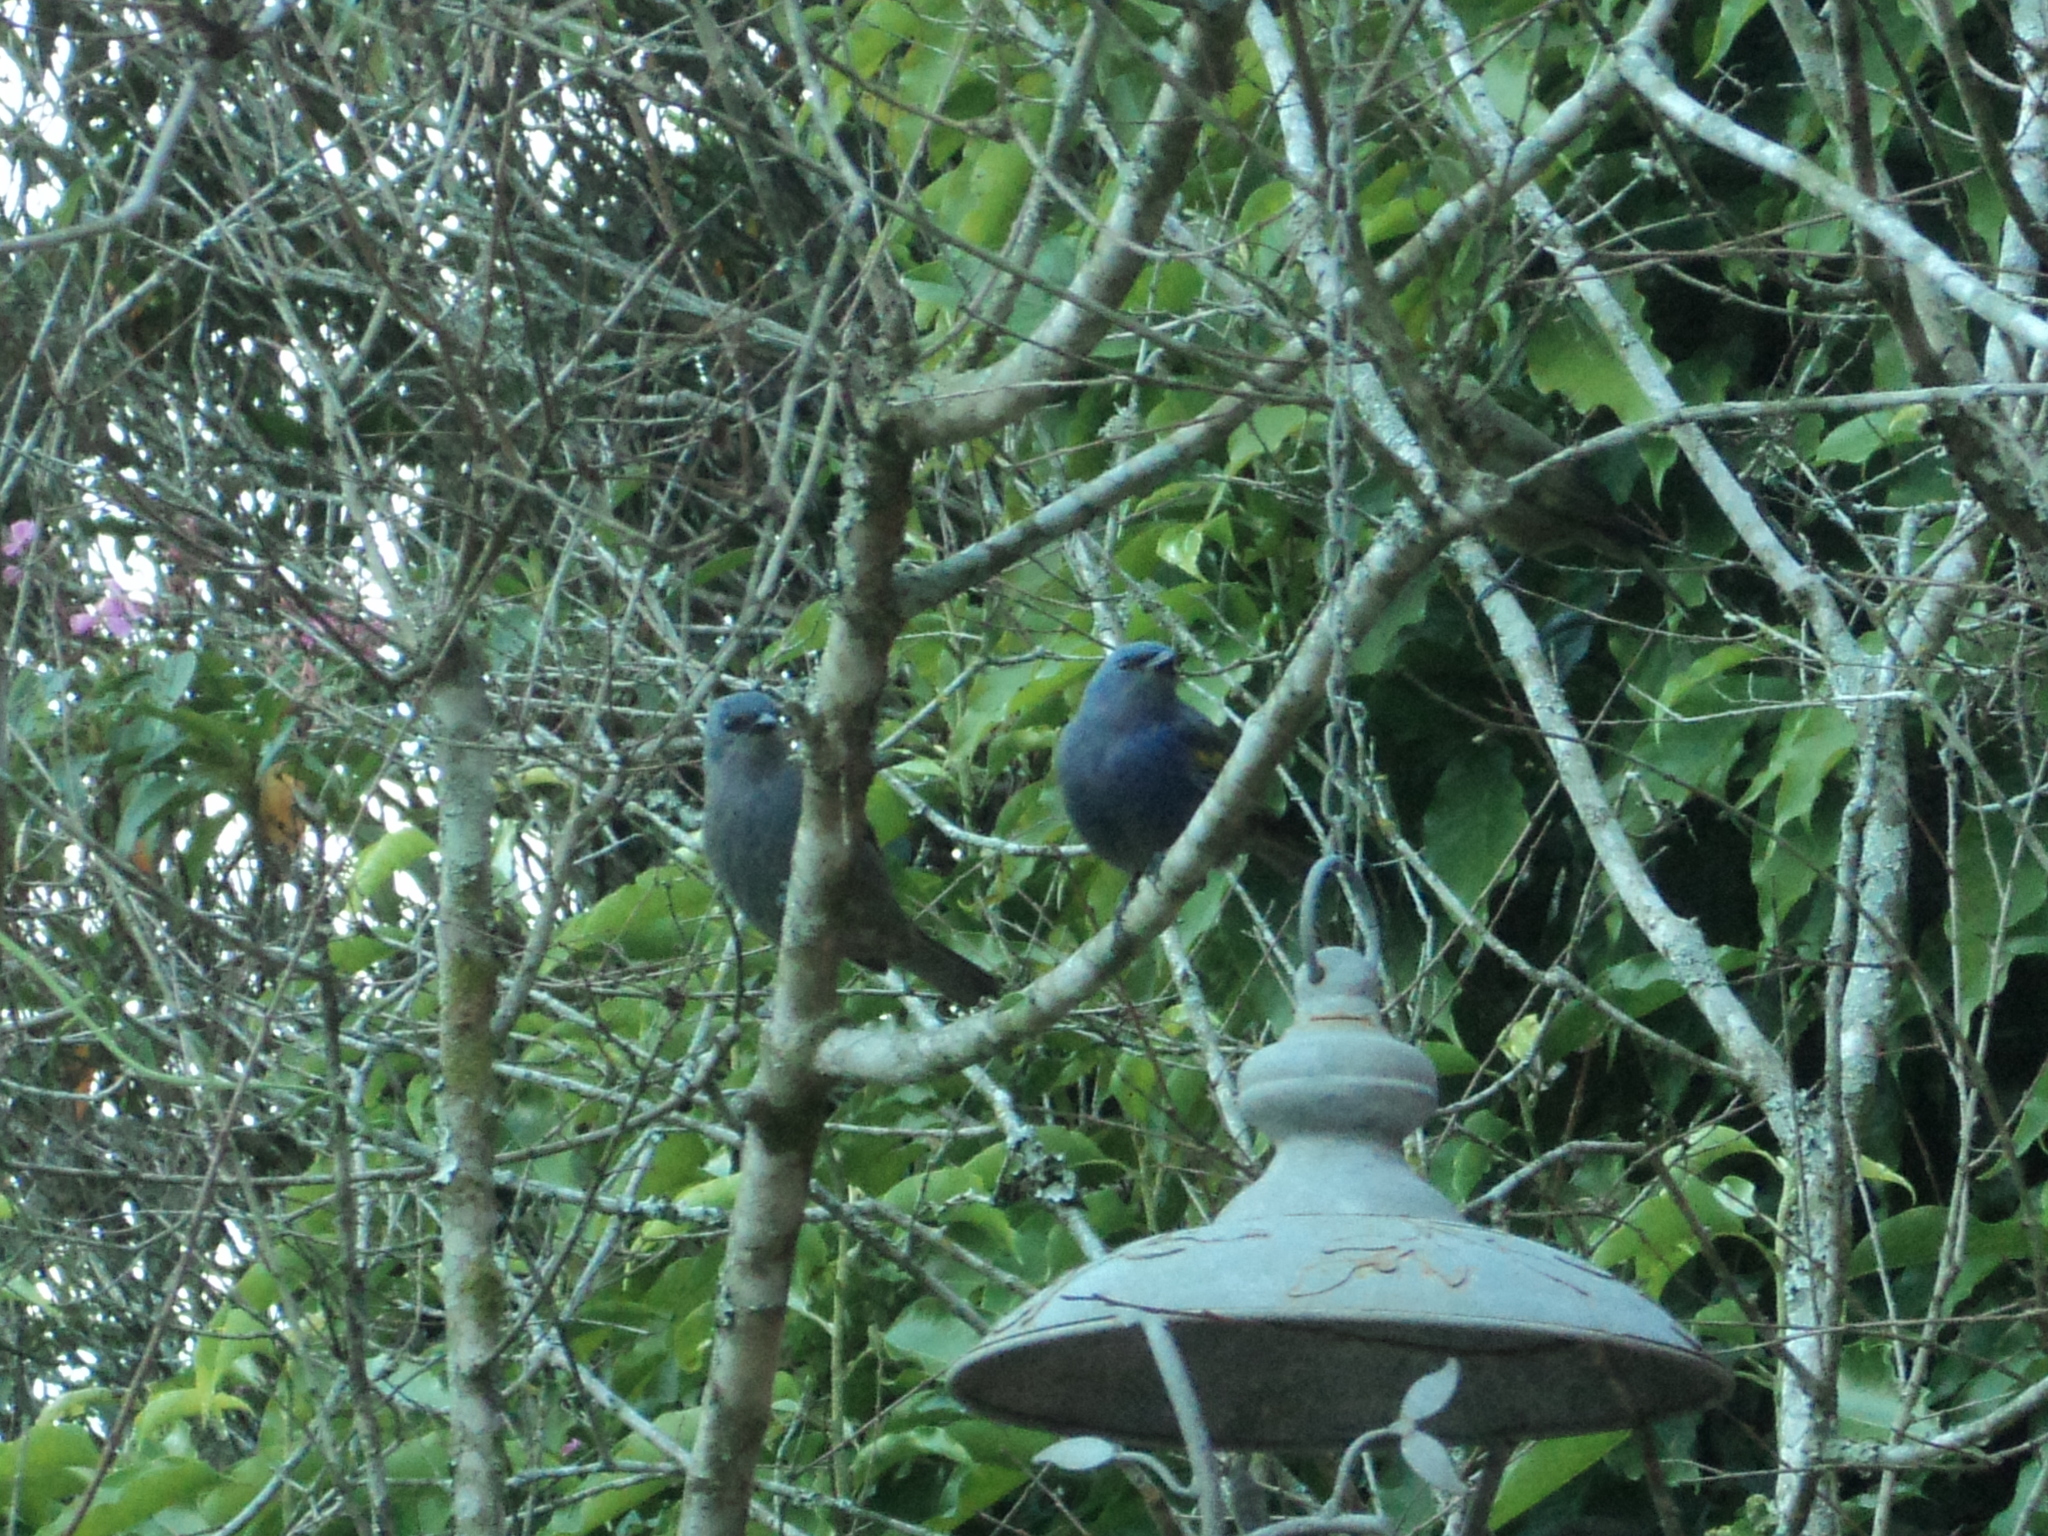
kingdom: Animalia
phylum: Chordata
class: Aves
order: Passeriformes
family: Thraupidae
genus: Thraupis
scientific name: Thraupis ornata
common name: Golden-chevroned tanager
